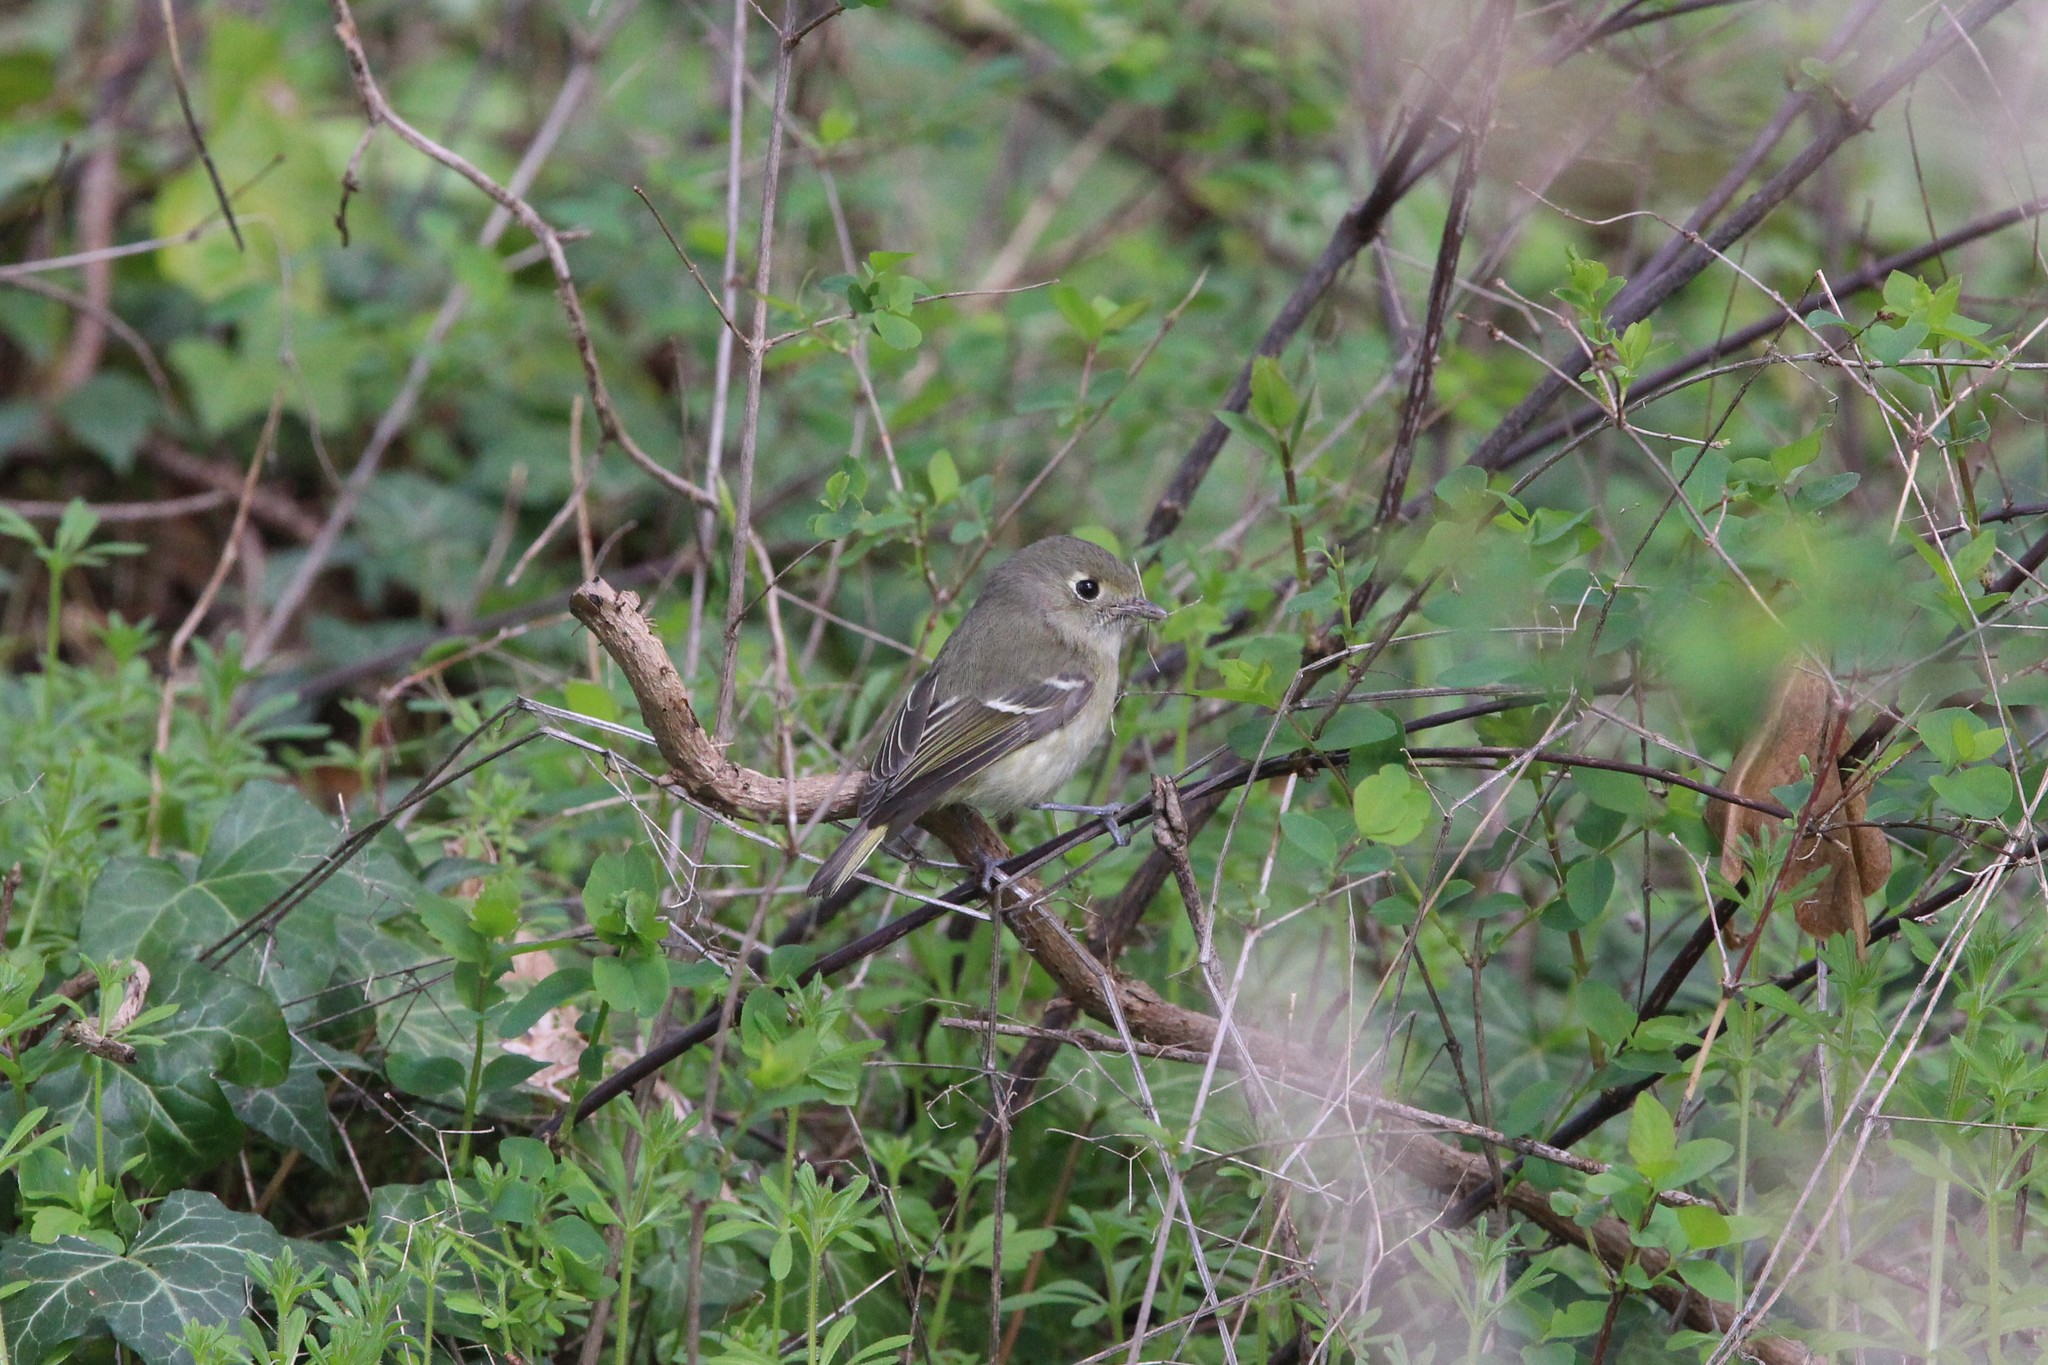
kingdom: Animalia
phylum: Chordata
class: Aves
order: Passeriformes
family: Vireonidae
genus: Vireo
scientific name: Vireo huttoni
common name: Hutton's vireo
